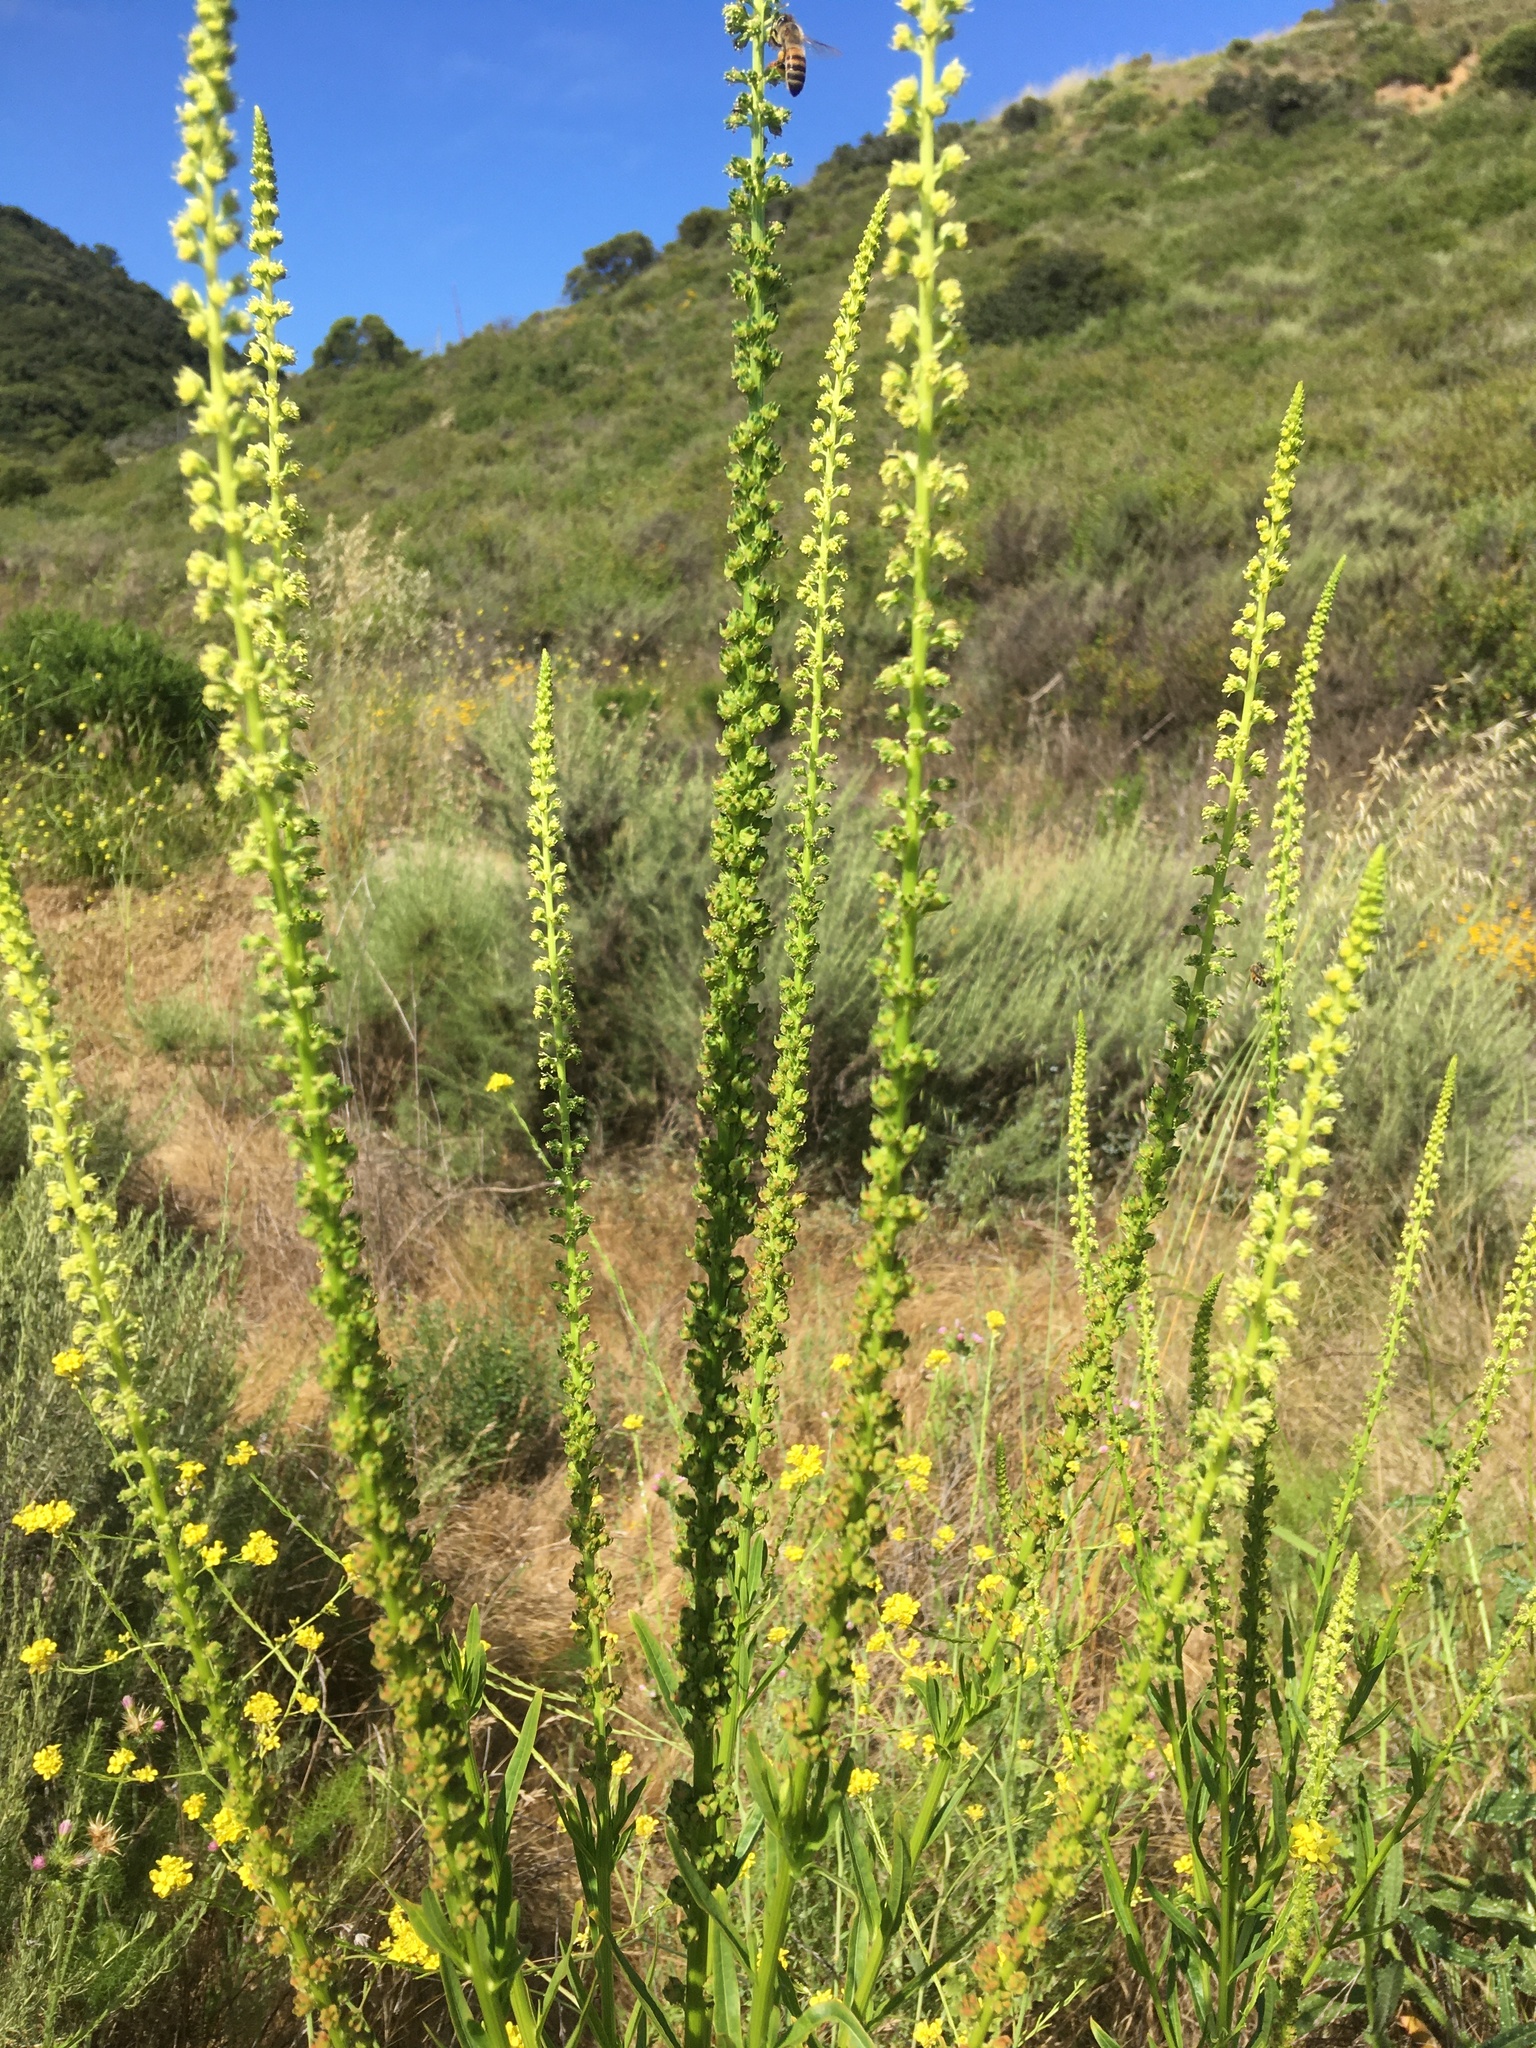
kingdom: Plantae
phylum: Tracheophyta
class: Magnoliopsida
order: Brassicales
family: Resedaceae
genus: Reseda
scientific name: Reseda luteola
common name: Weld
